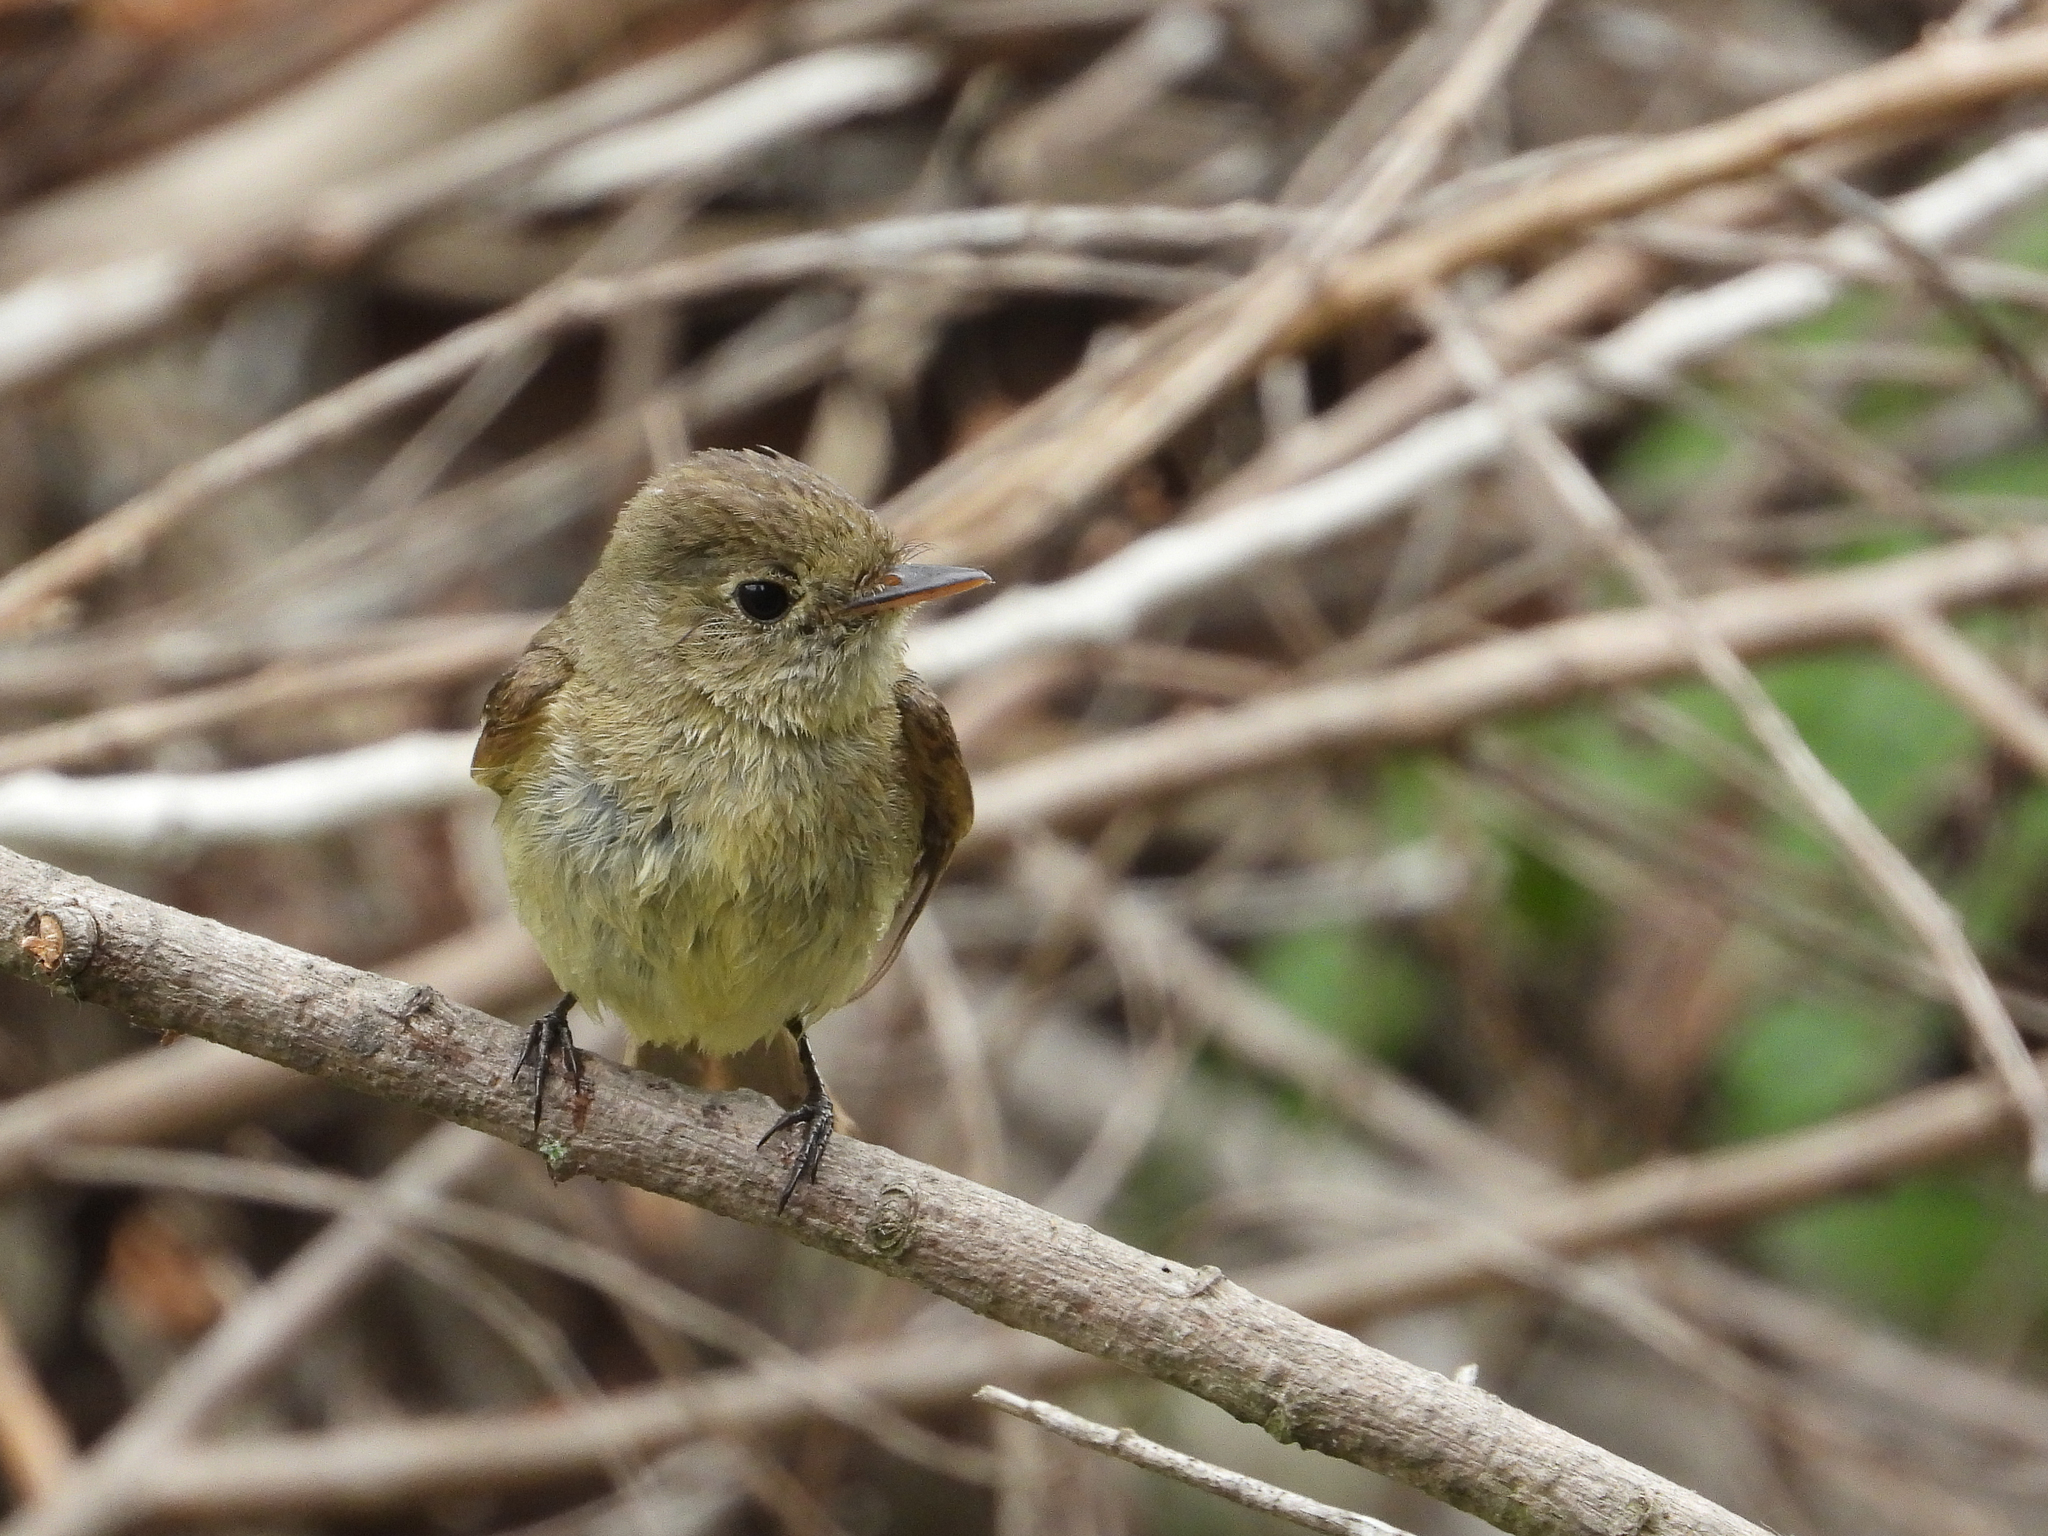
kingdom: Animalia
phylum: Chordata
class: Aves
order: Passeriformes
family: Tyrannidae
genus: Empidonax
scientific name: Empidonax difficilis
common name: Pacific-slope flycatcher
